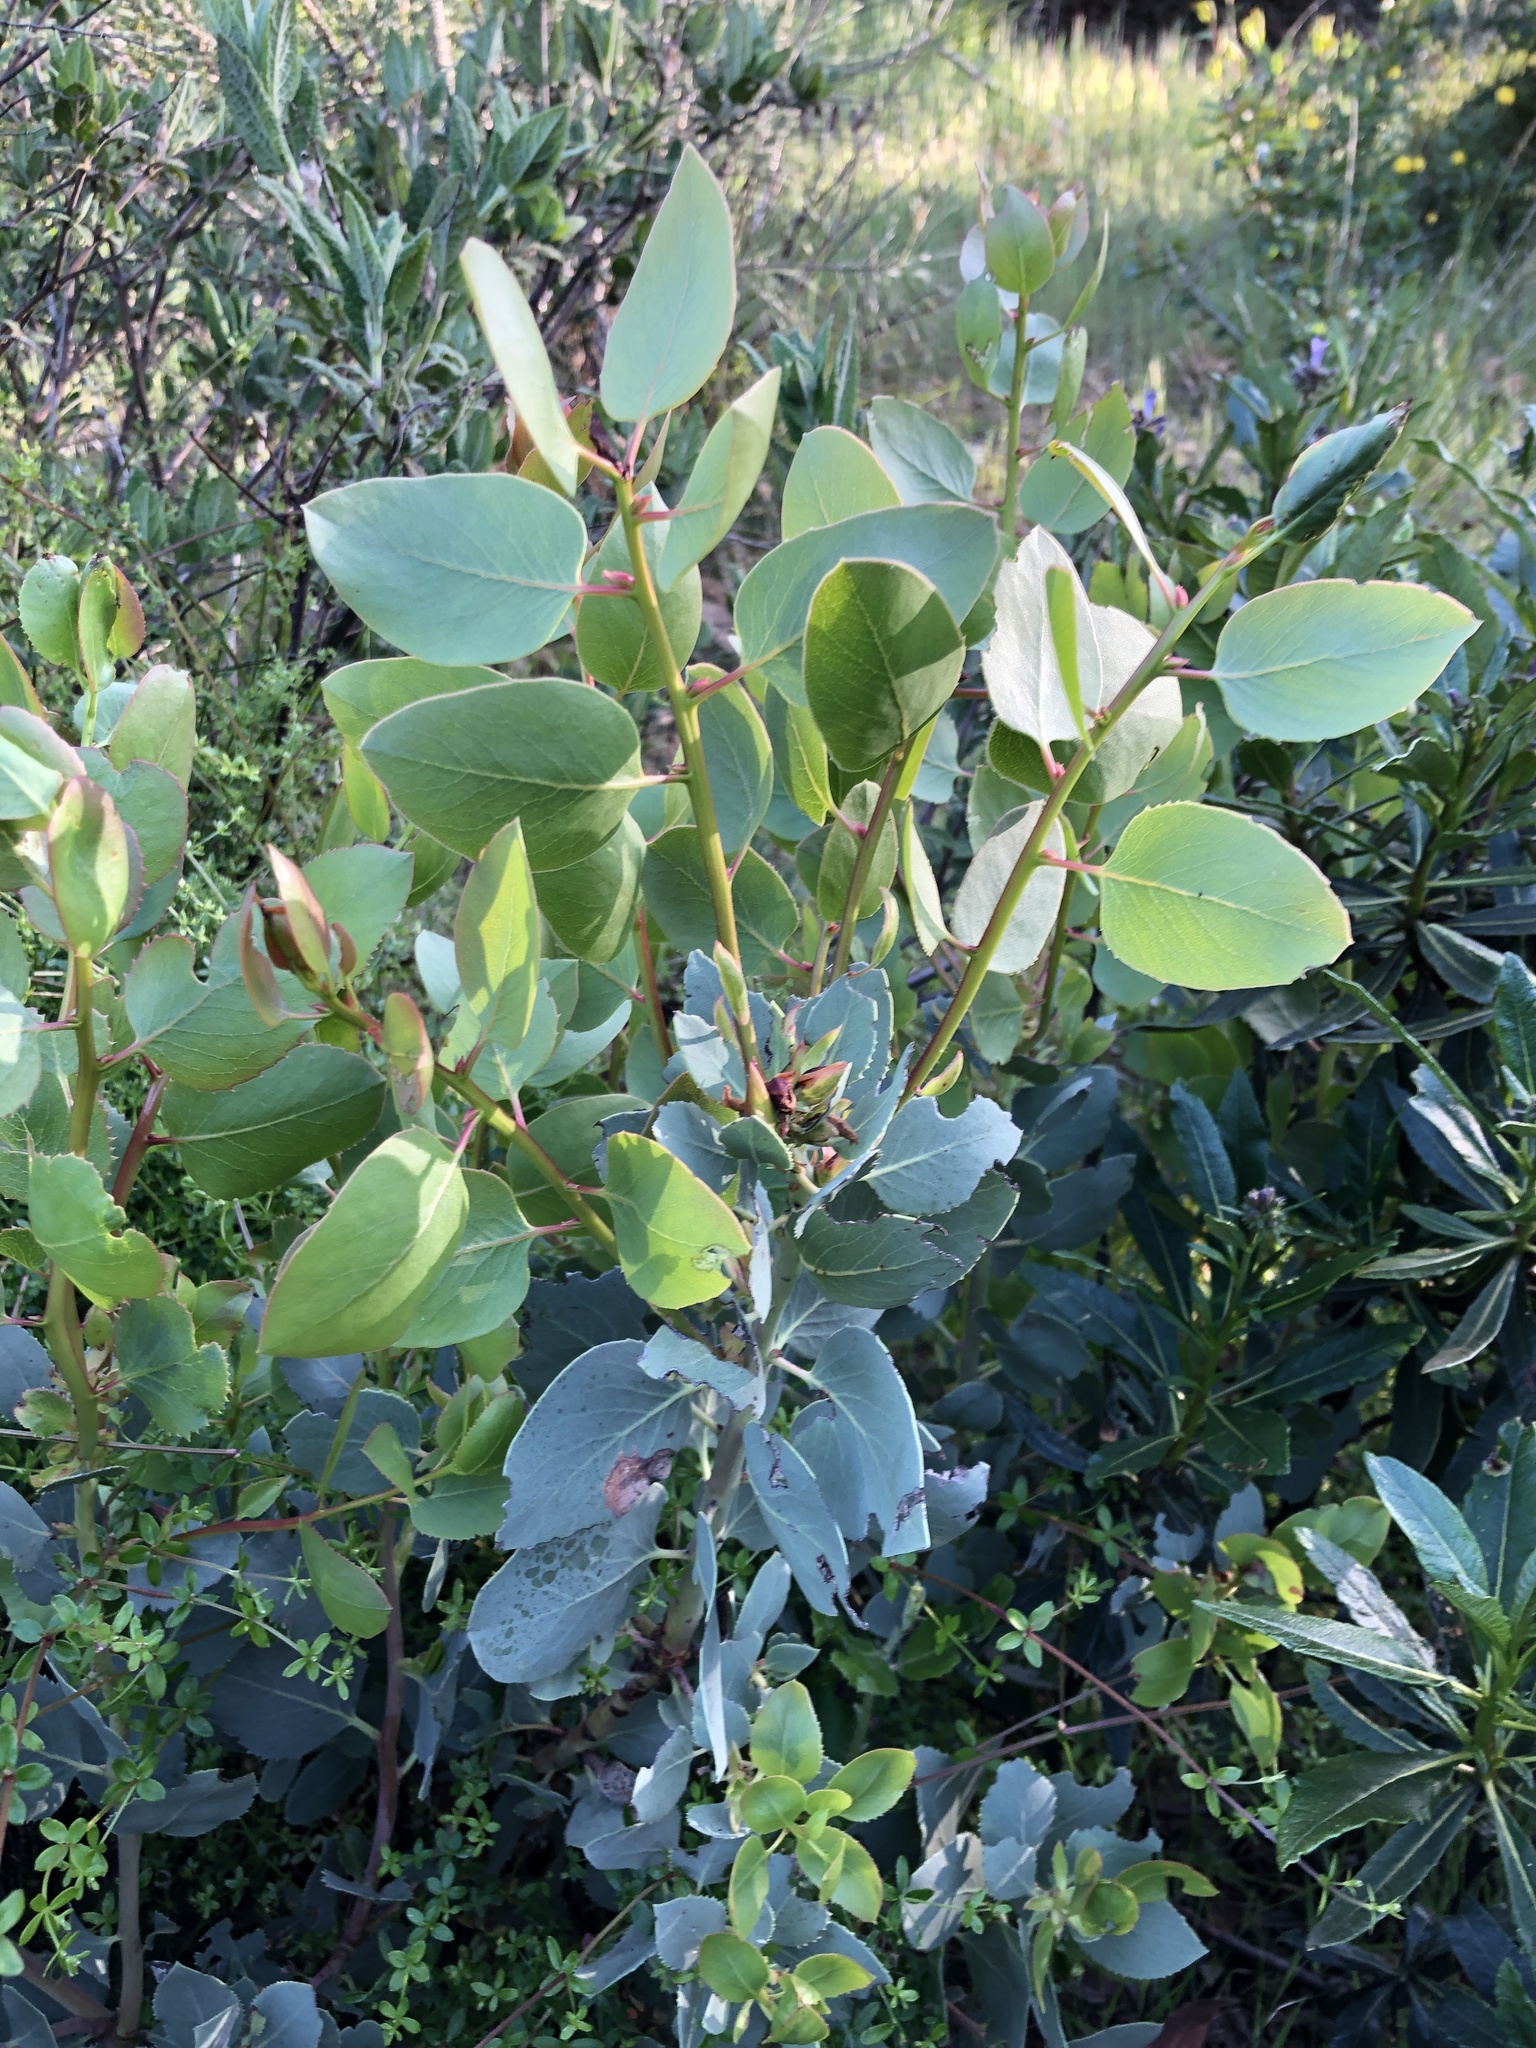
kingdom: Plantae
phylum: Tracheophyta
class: Magnoliopsida
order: Ericales
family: Ericaceae
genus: Arctostaphylos
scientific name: Arctostaphylos glauca
